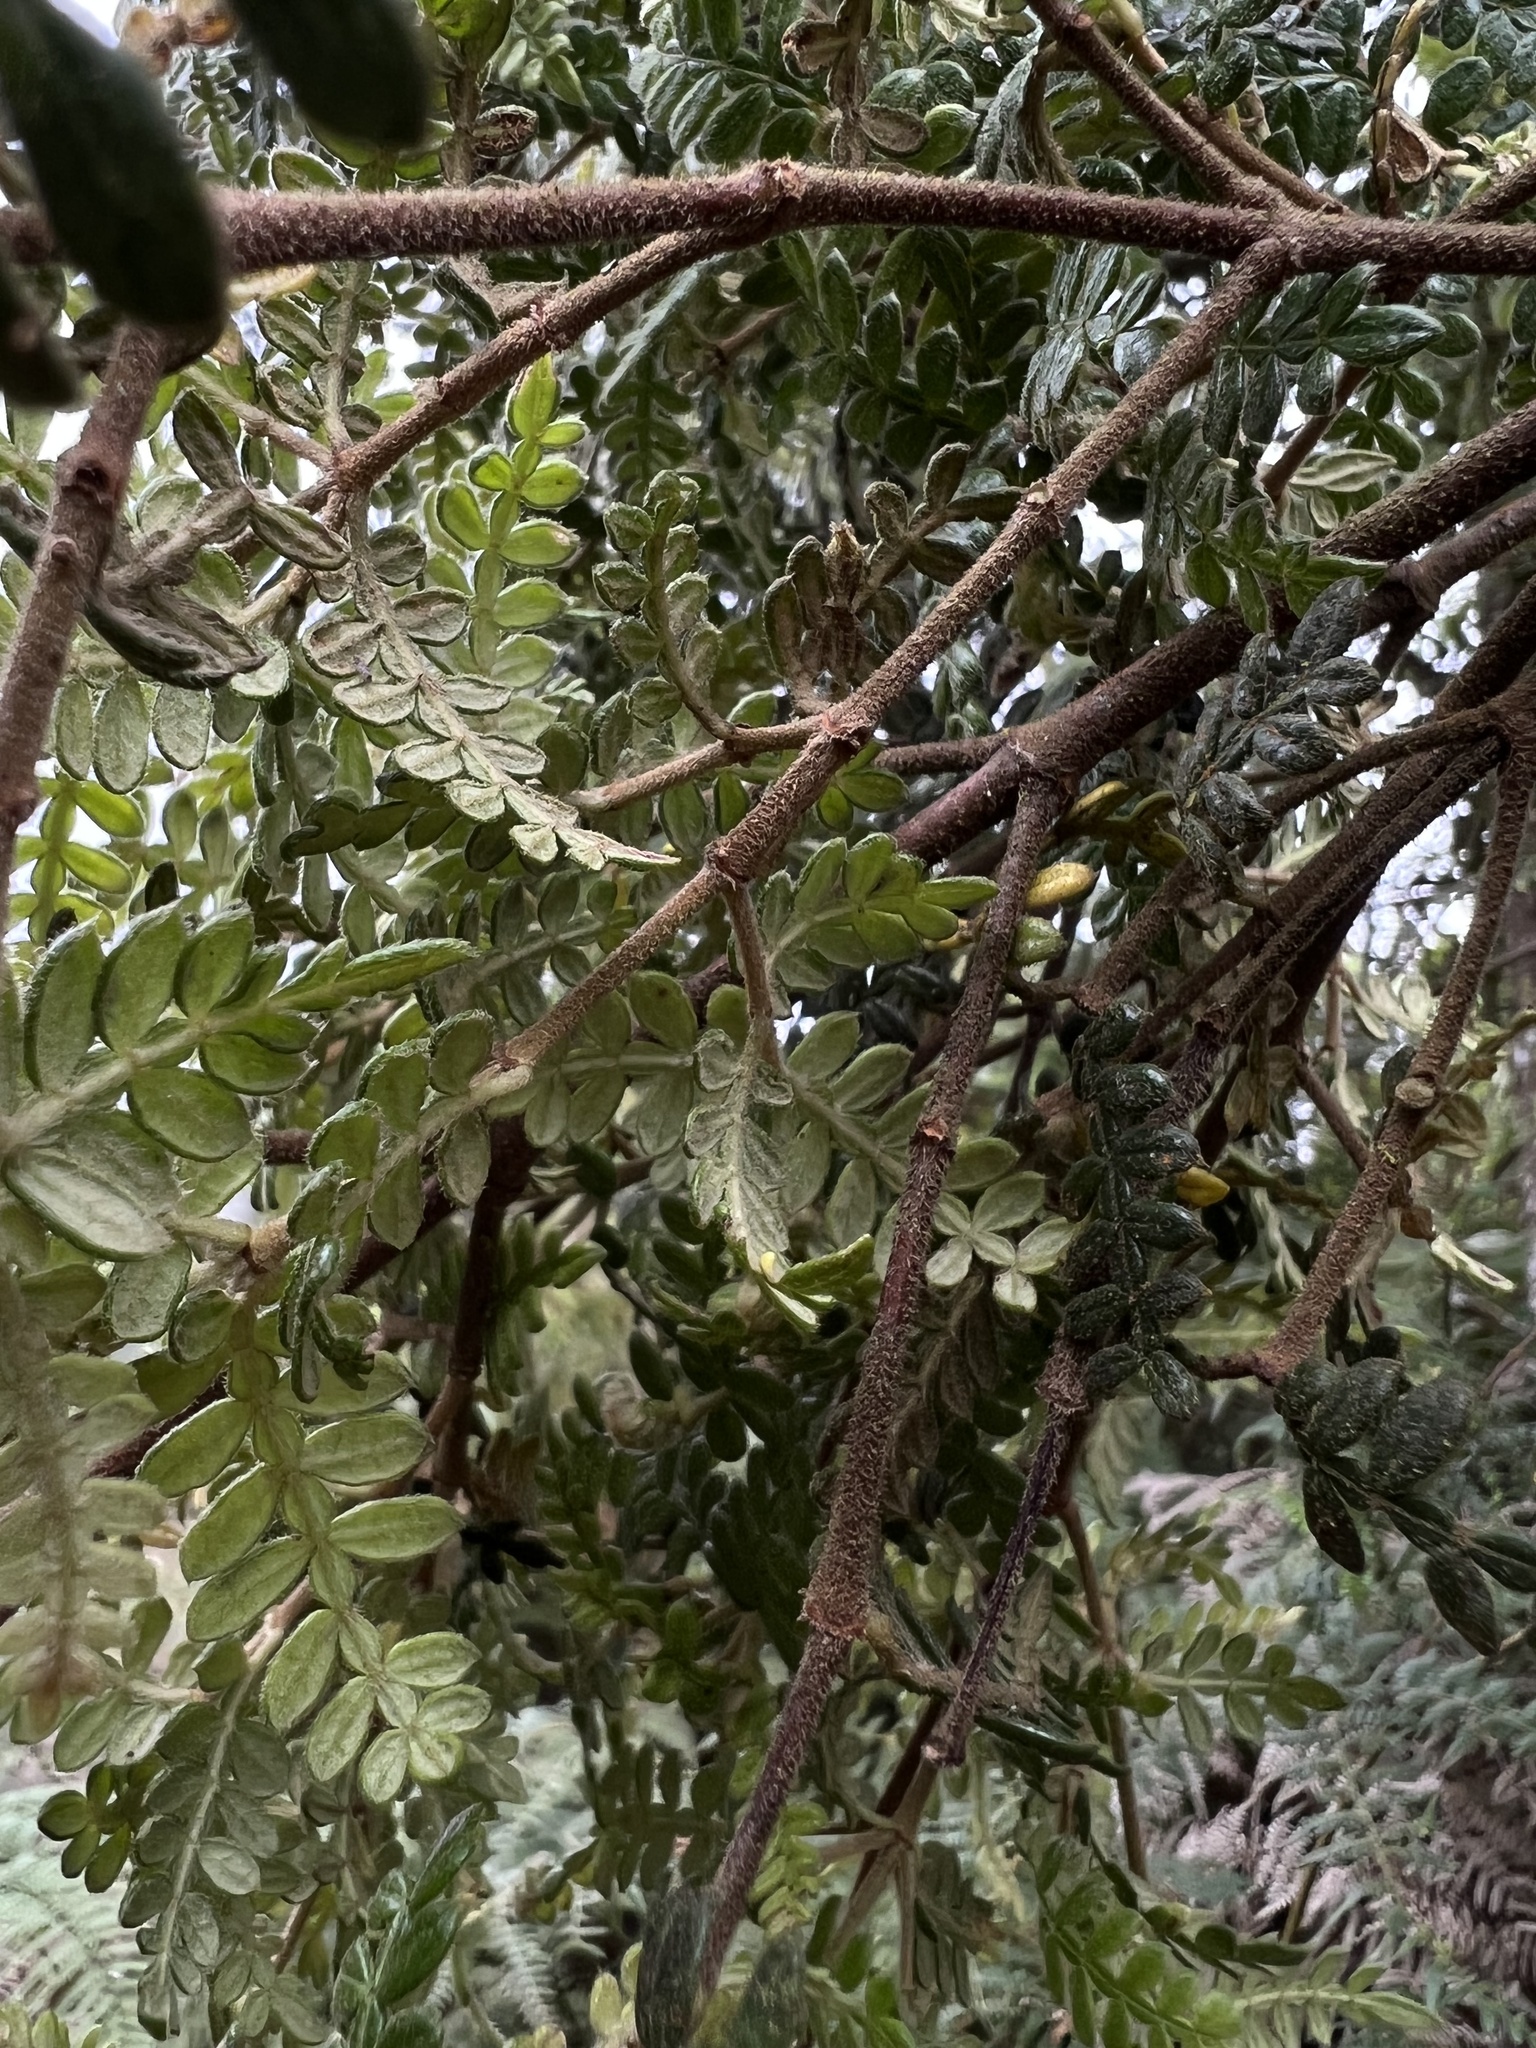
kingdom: Plantae
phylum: Tracheophyta
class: Magnoliopsida
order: Oxalidales
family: Cunoniaceae
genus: Weinmannia
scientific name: Weinmannia tomentosa
